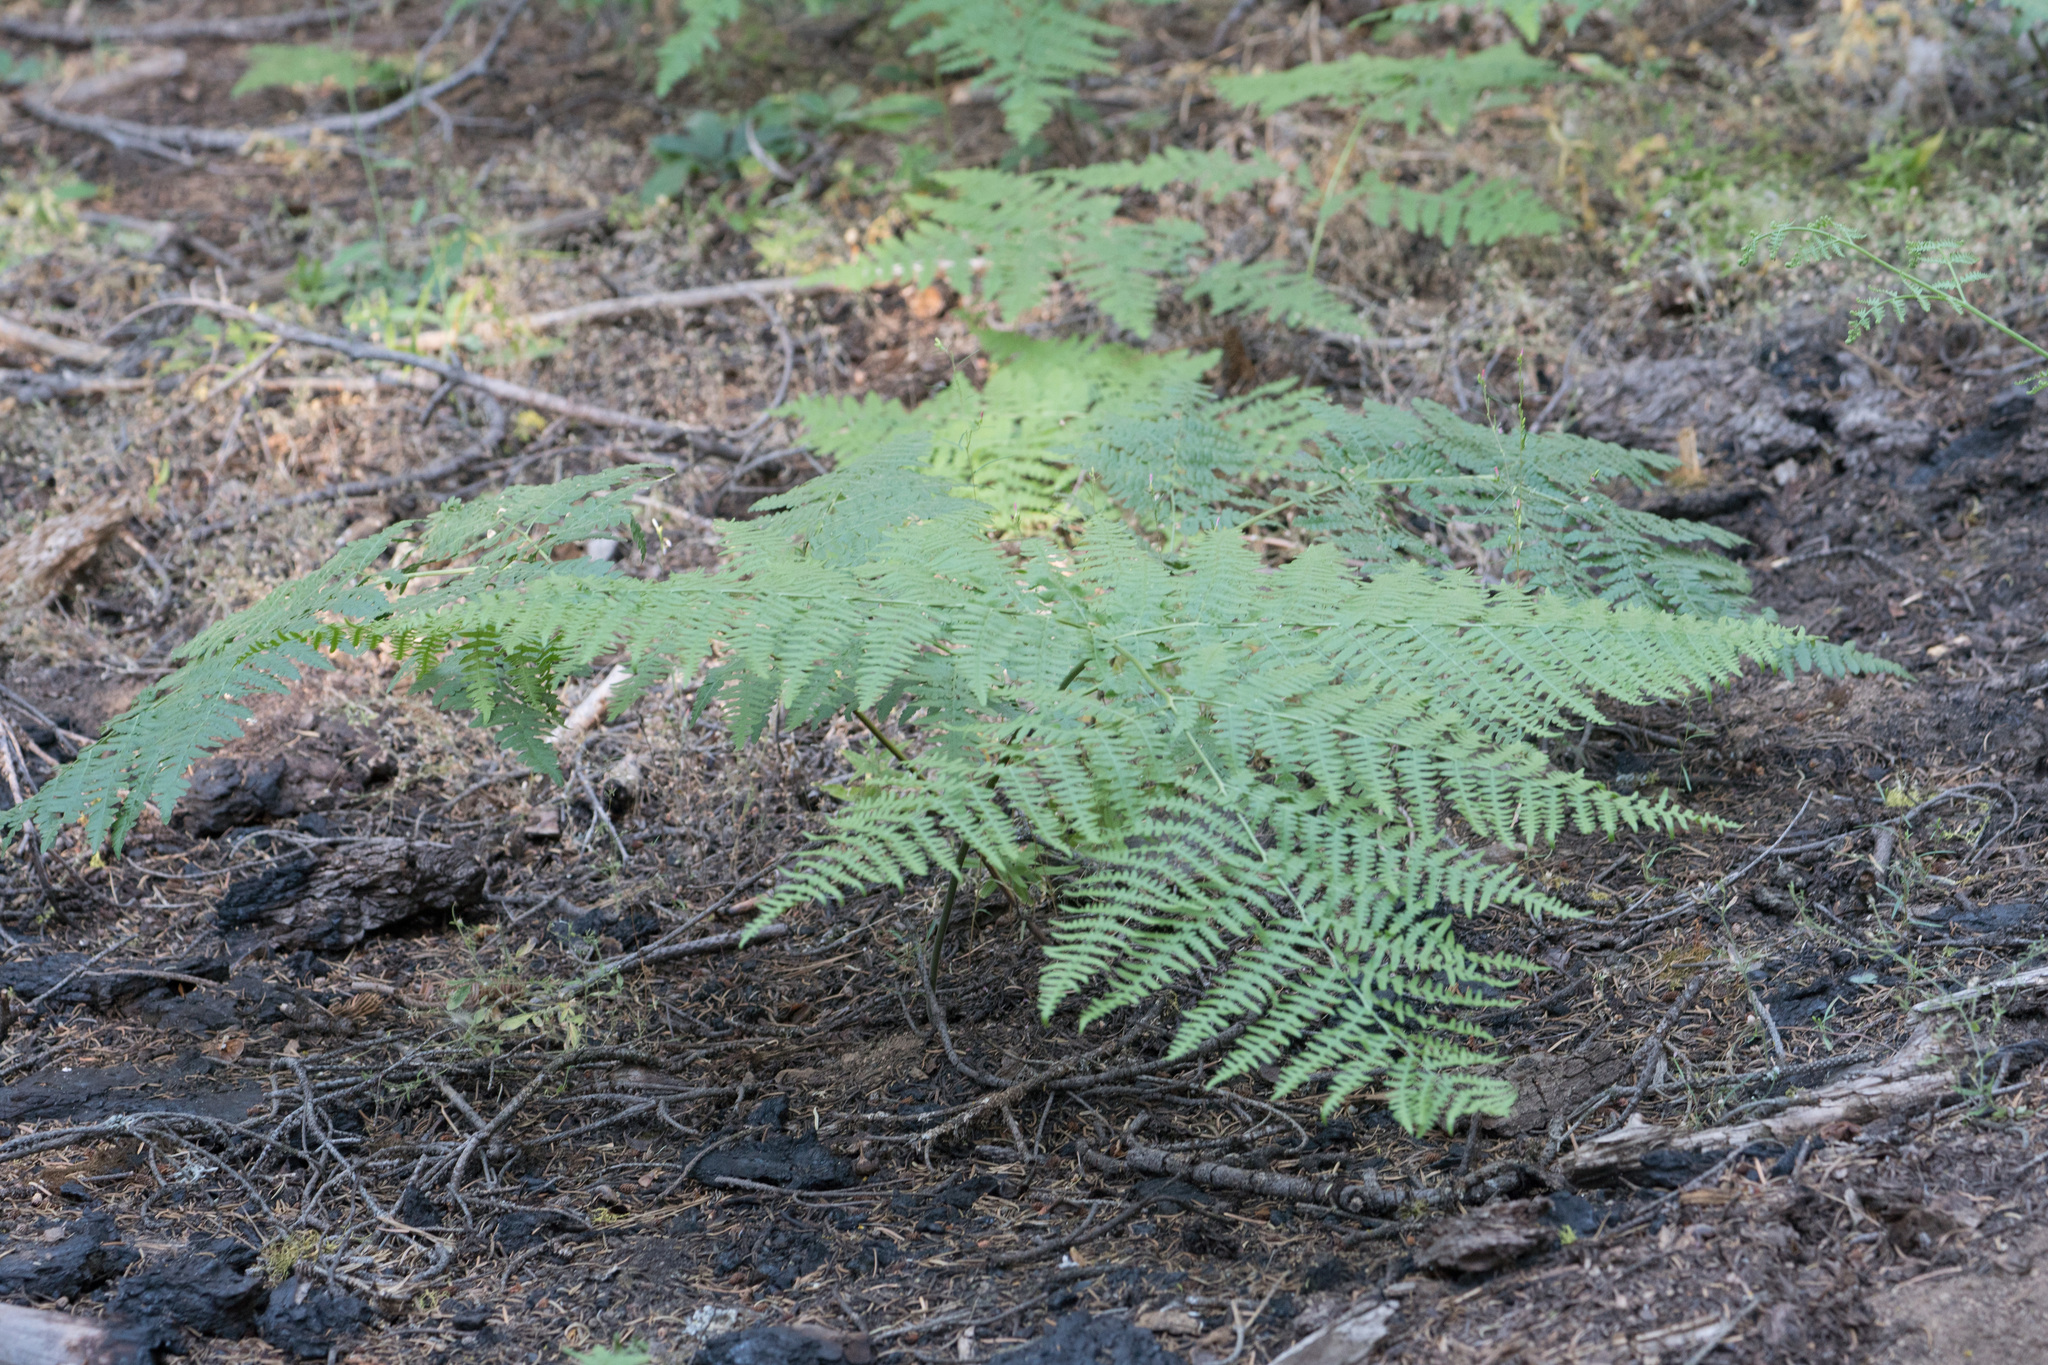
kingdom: Plantae
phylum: Tracheophyta
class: Polypodiopsida
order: Polypodiales
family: Dennstaedtiaceae
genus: Pteridium
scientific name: Pteridium aquilinum
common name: Bracken
